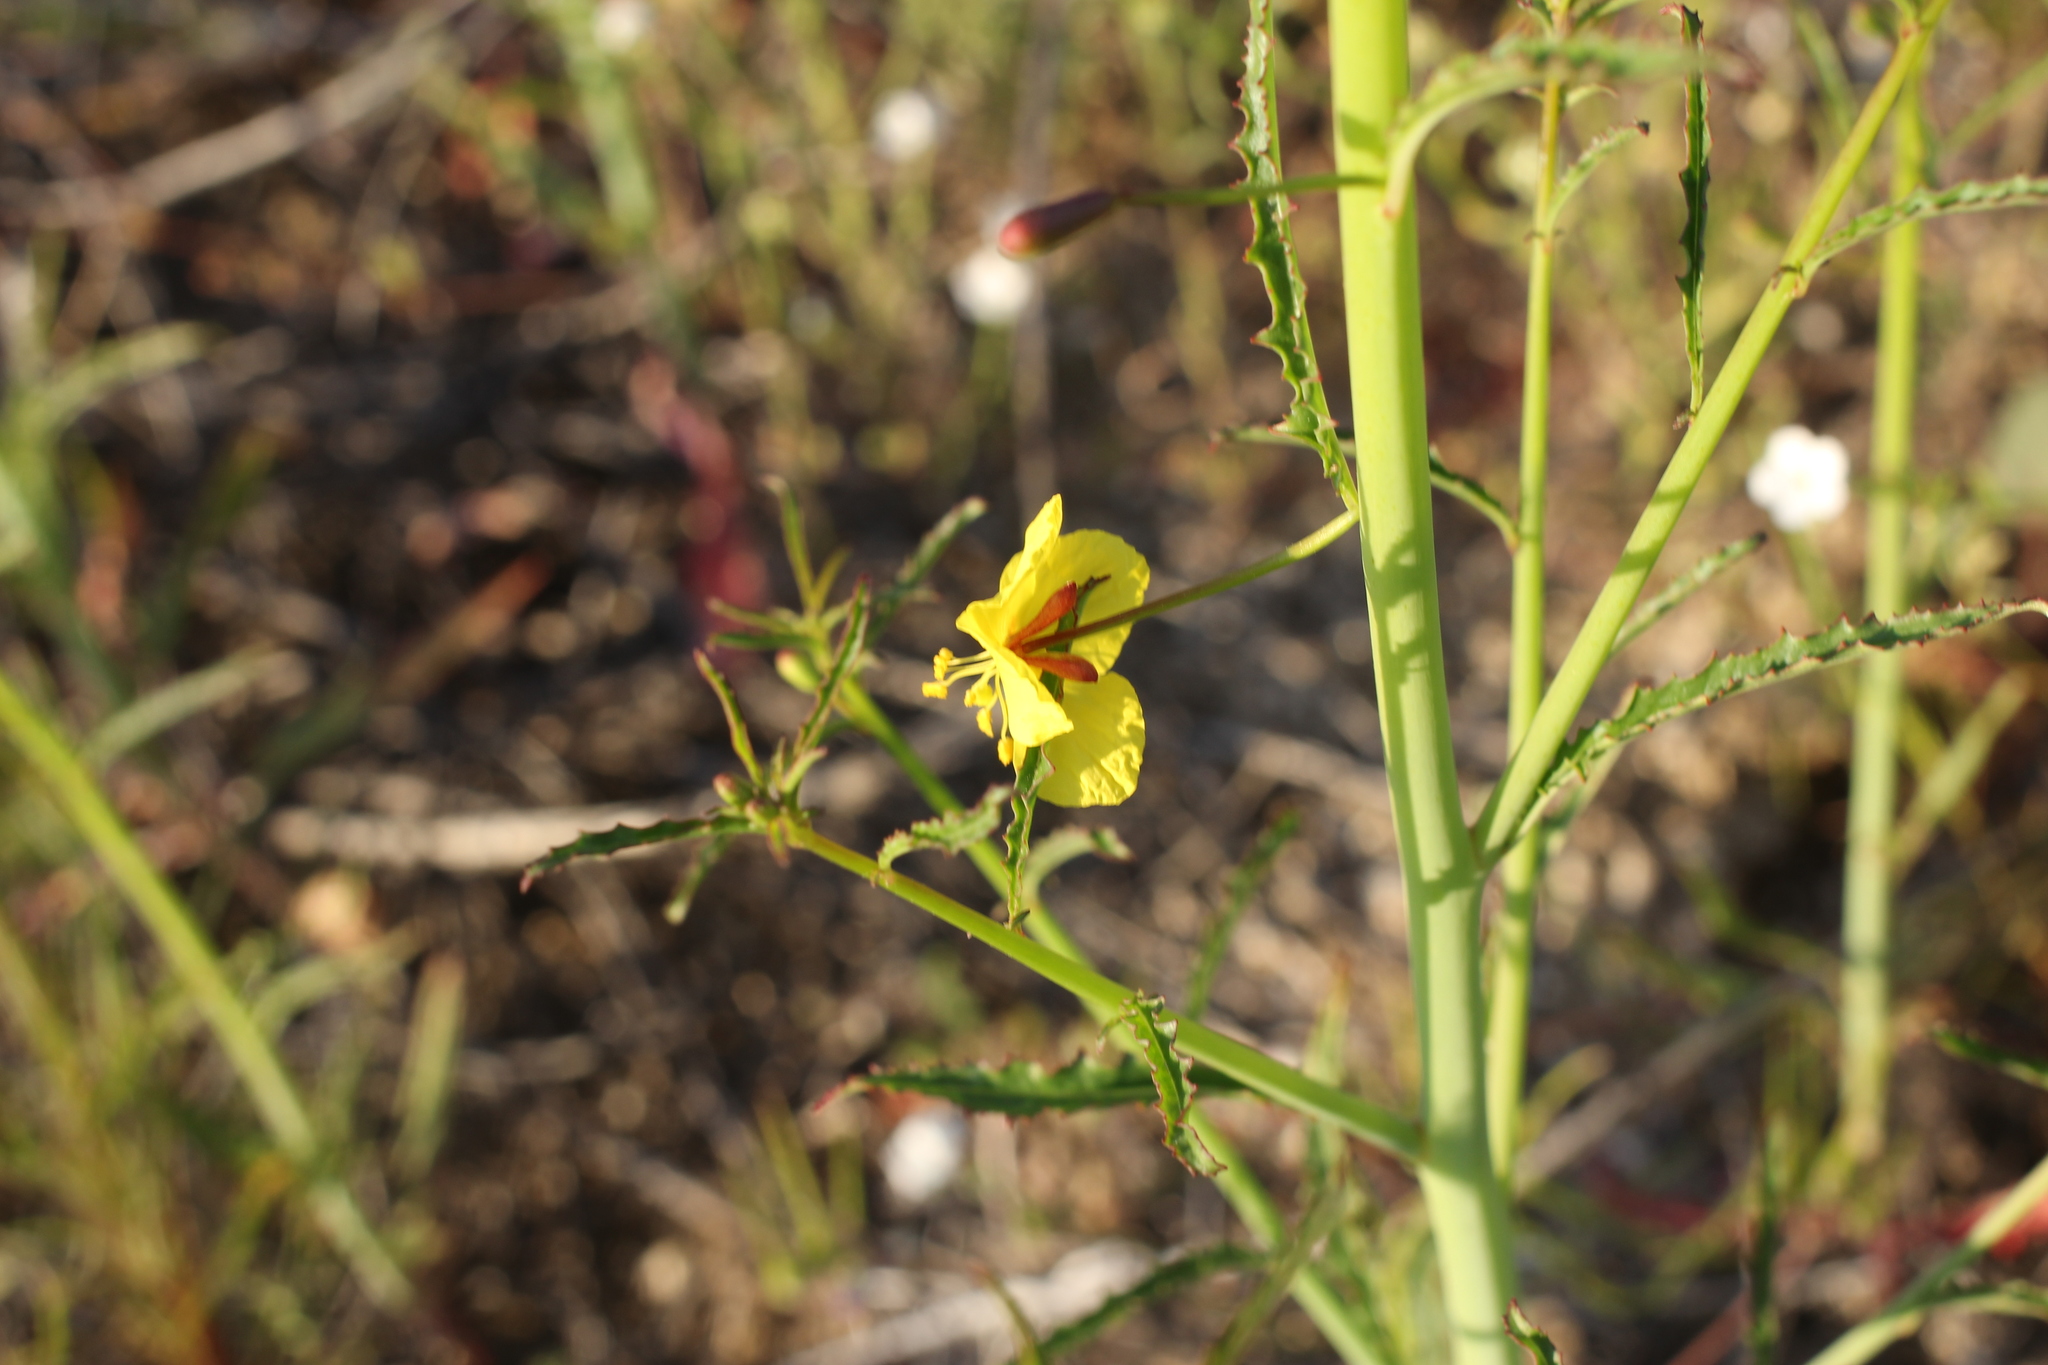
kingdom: Plantae
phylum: Tracheophyta
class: Magnoliopsida
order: Myrtales
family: Onagraceae
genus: Eulobus
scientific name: Eulobus californicus
